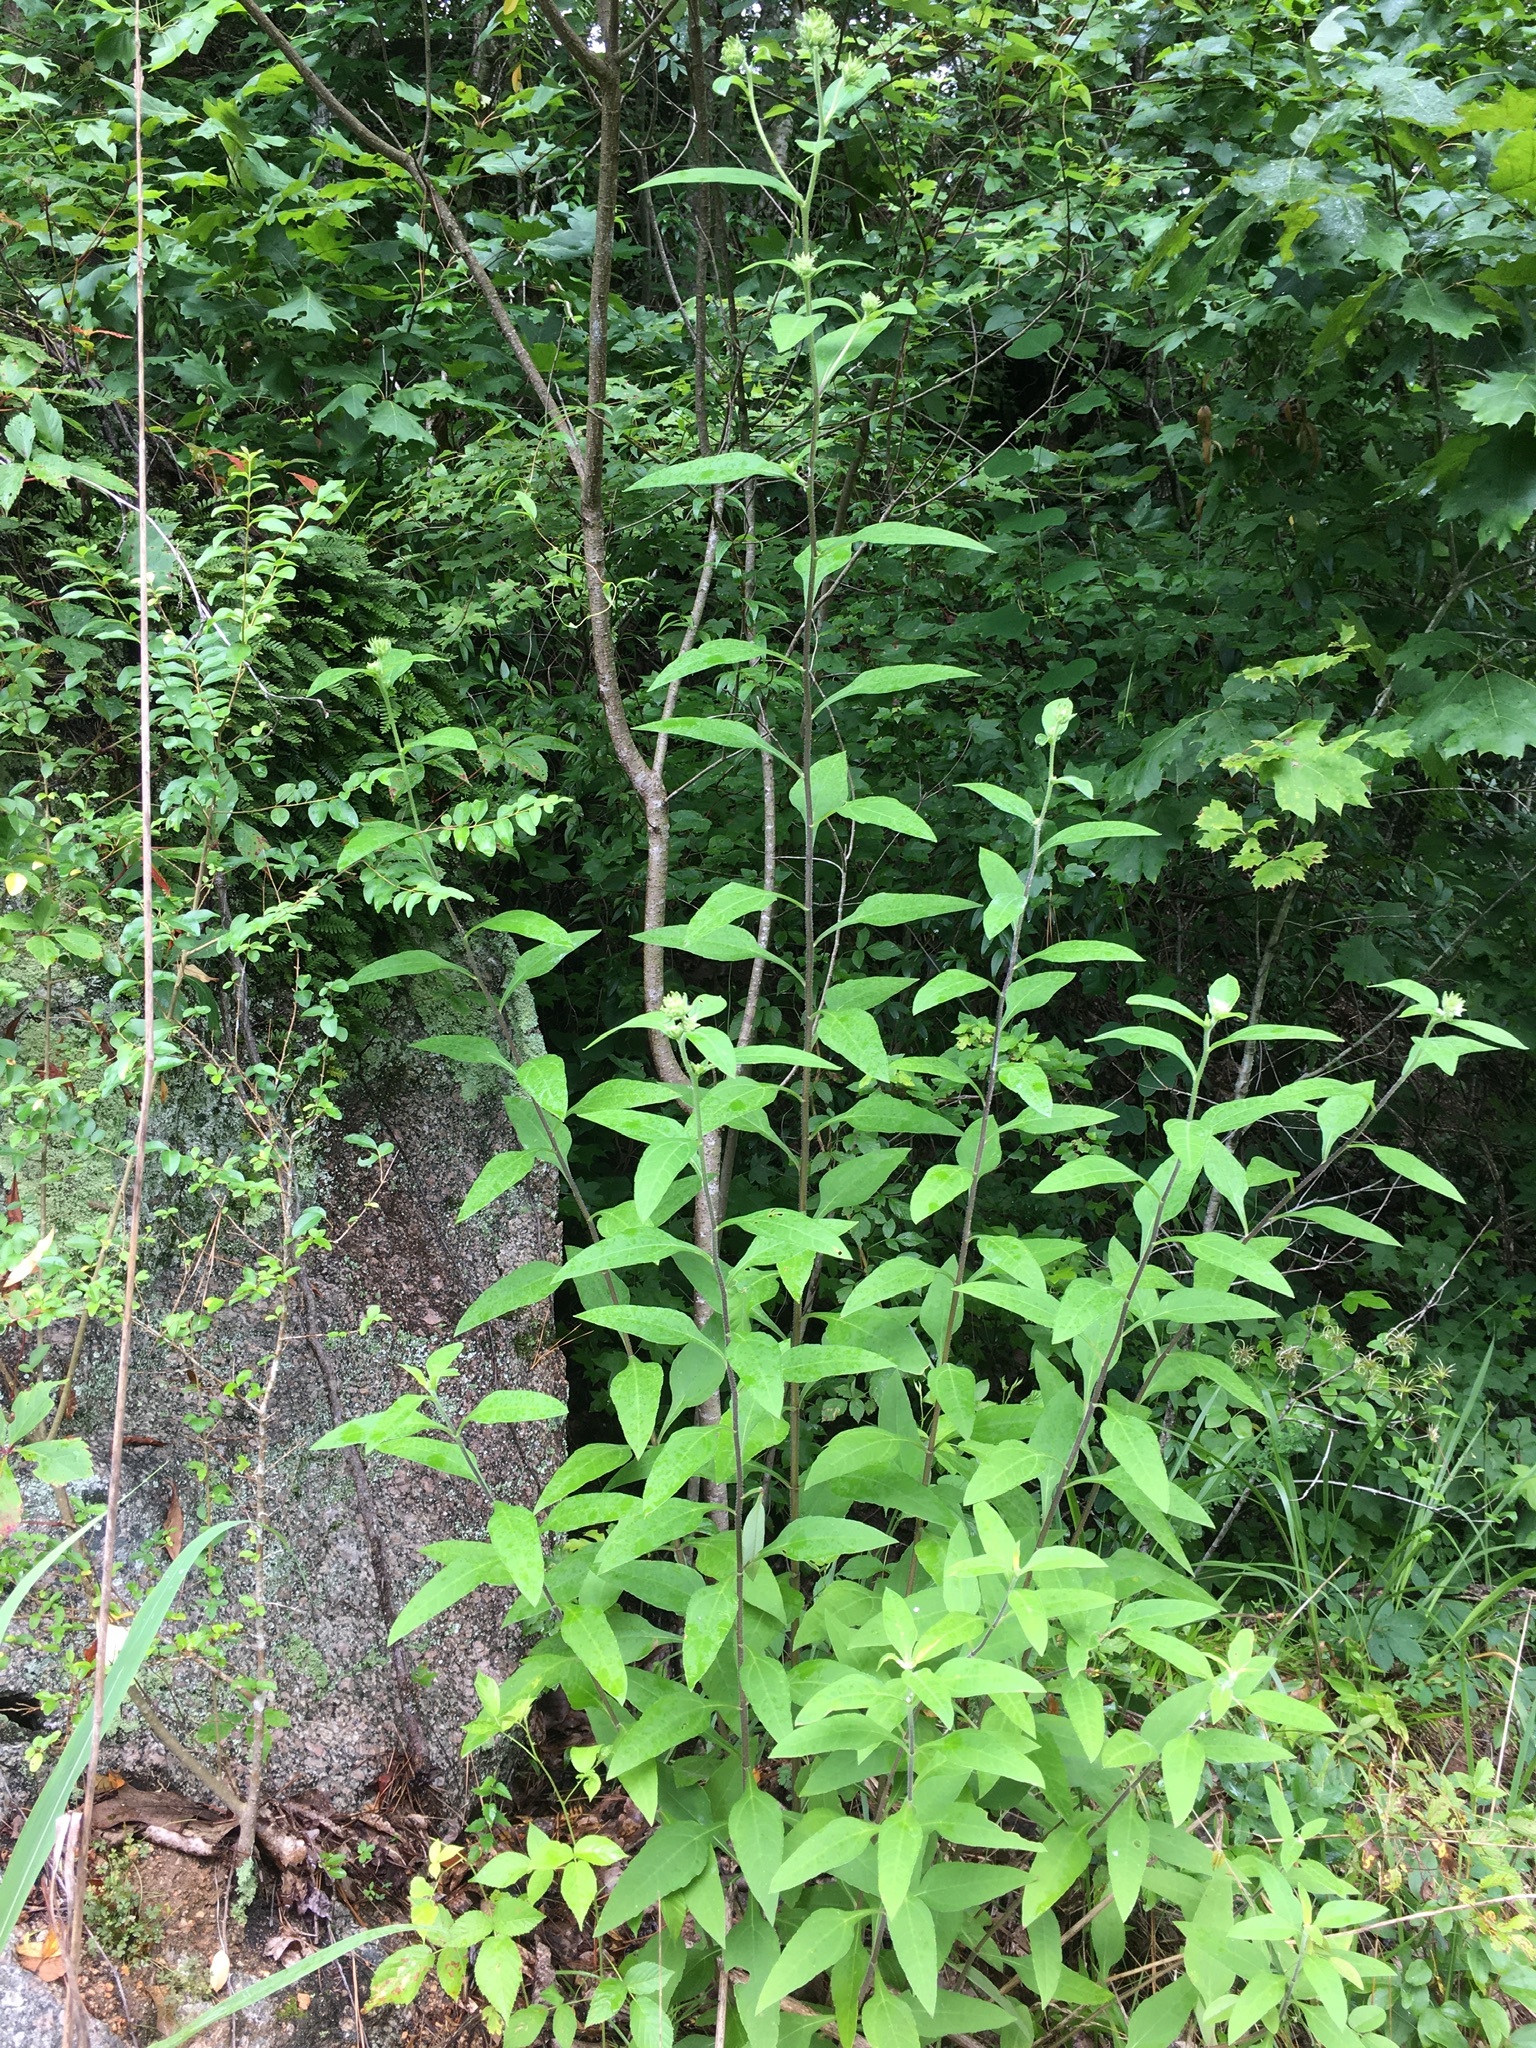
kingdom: Plantae
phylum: Tracheophyta
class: Magnoliopsida
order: Asterales
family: Asteraceae
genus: Helianthus
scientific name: Helianthus resinosus
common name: Resin-dot sunflower
